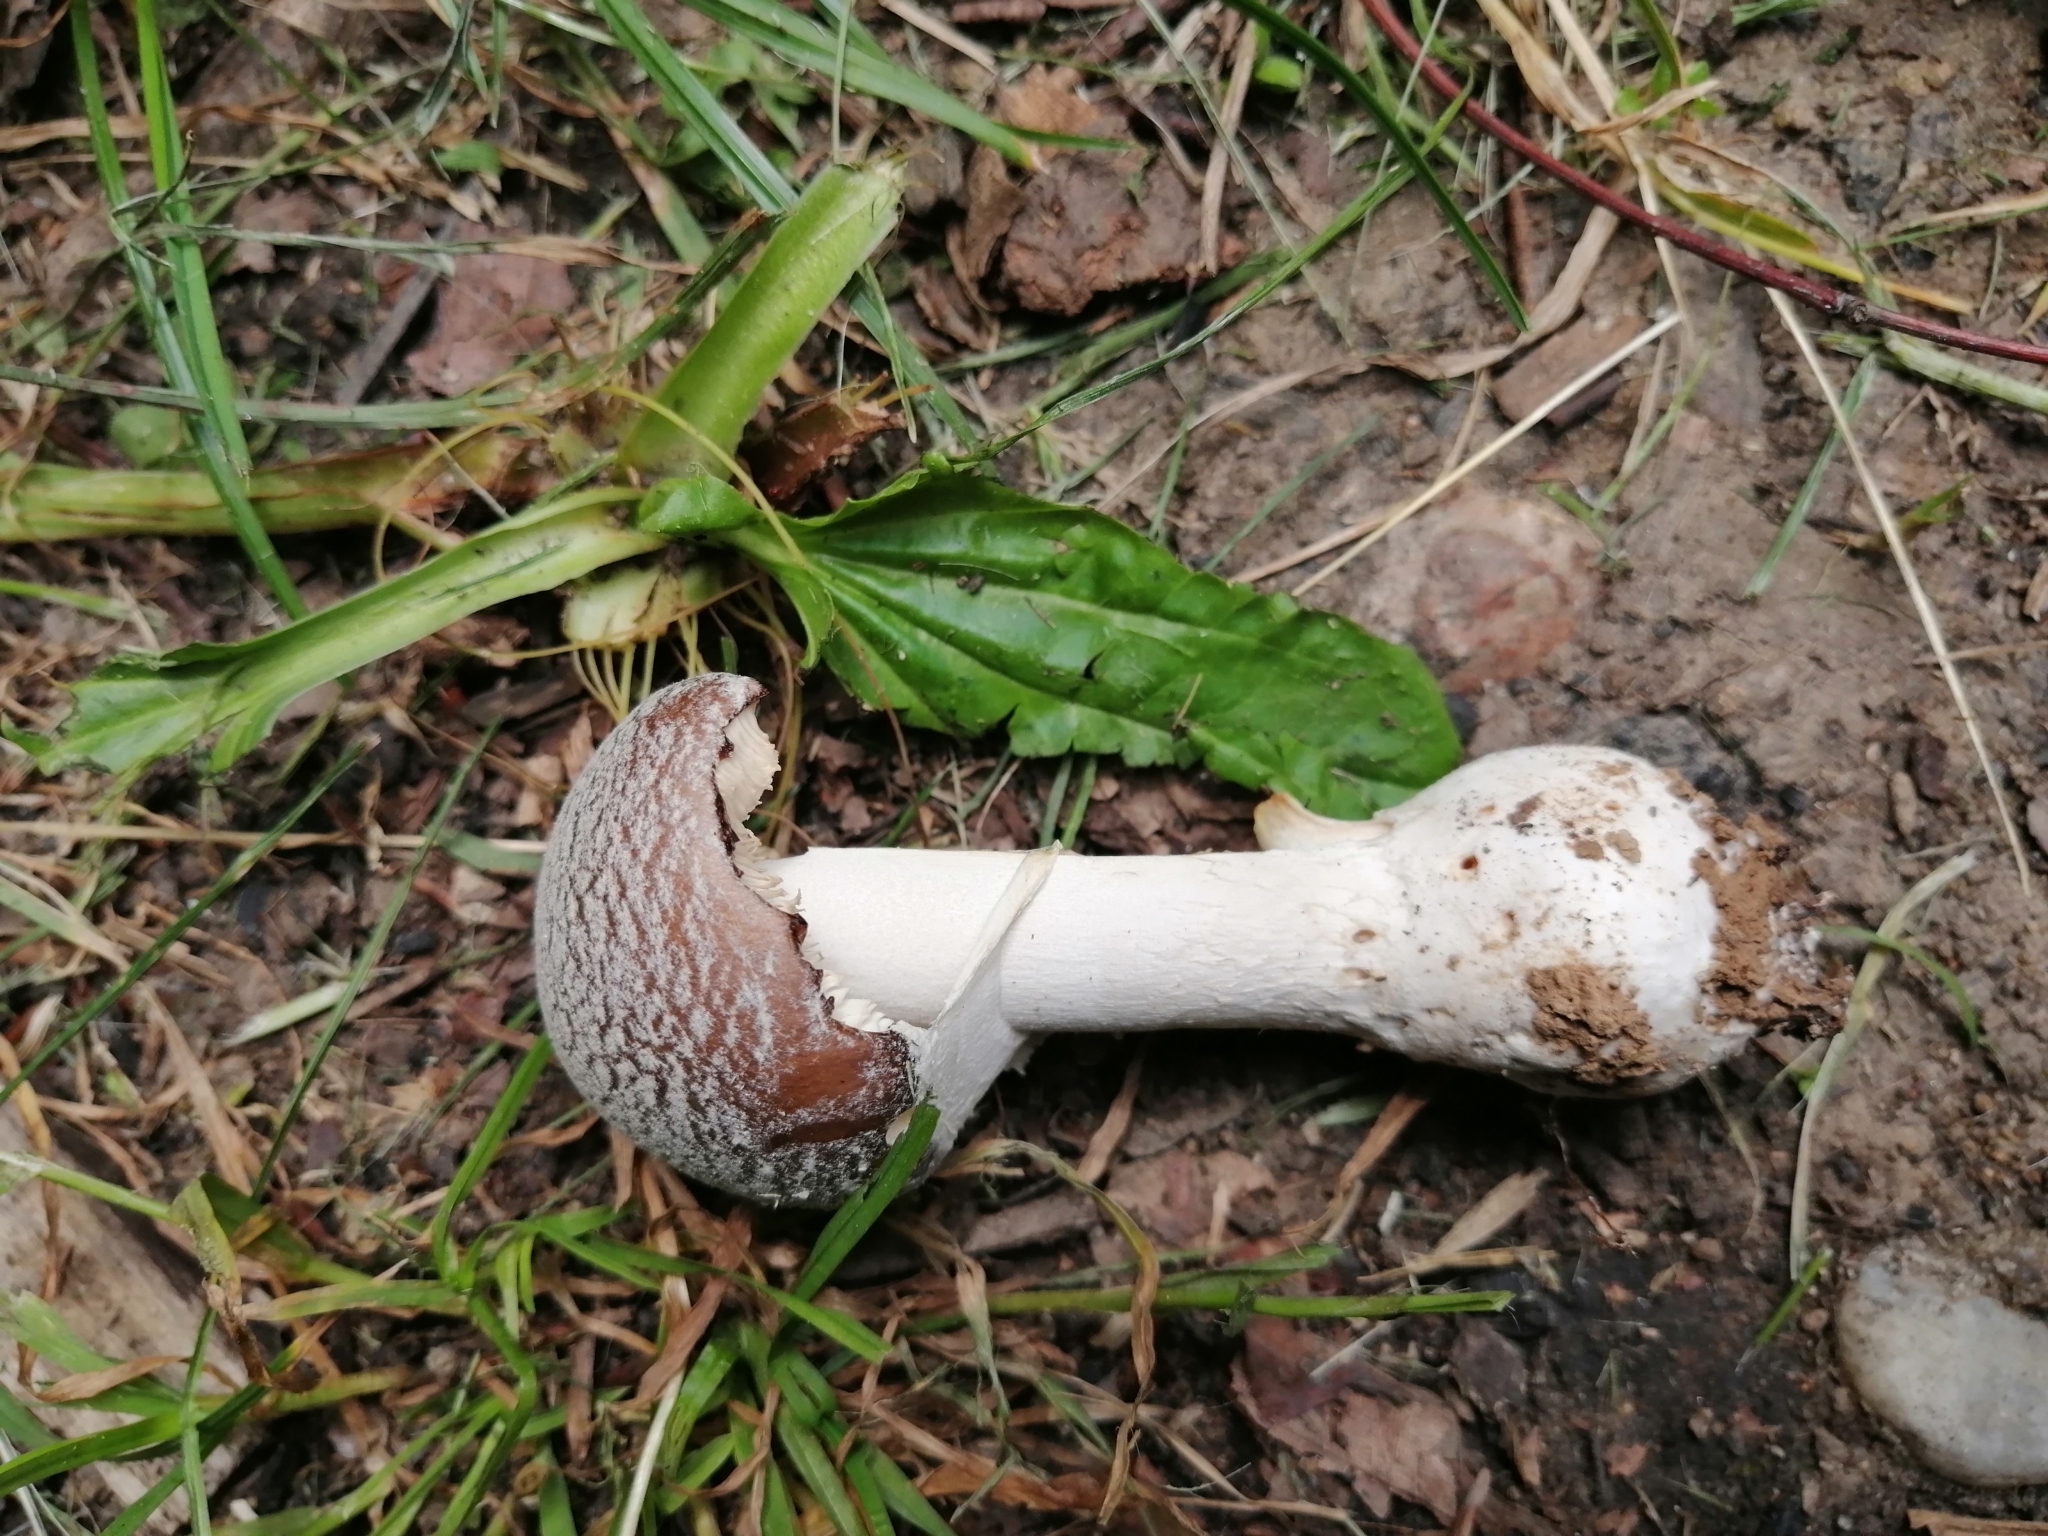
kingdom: Fungi
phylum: Basidiomycota
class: Agaricomycetes
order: Agaricales
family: Amanitaceae
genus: Amanita
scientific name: Amanita excelsa
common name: European false blusher
